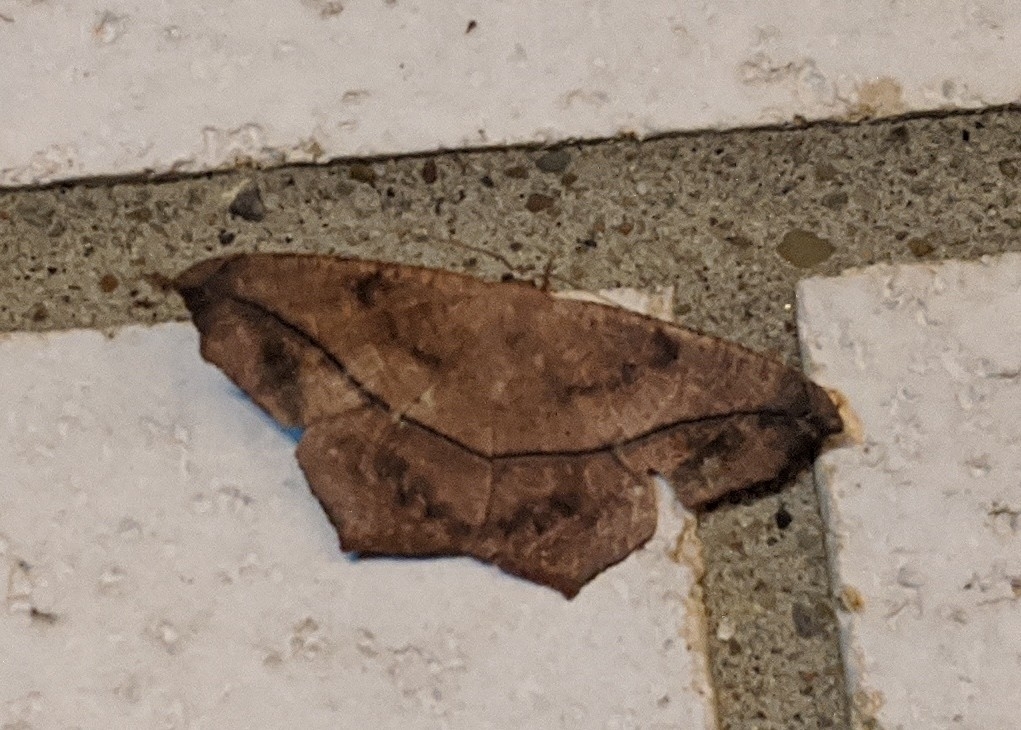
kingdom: Animalia
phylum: Arthropoda
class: Insecta
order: Lepidoptera
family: Geometridae
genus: Prochoerodes
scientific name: Prochoerodes lineola
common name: Large maple spanworm
